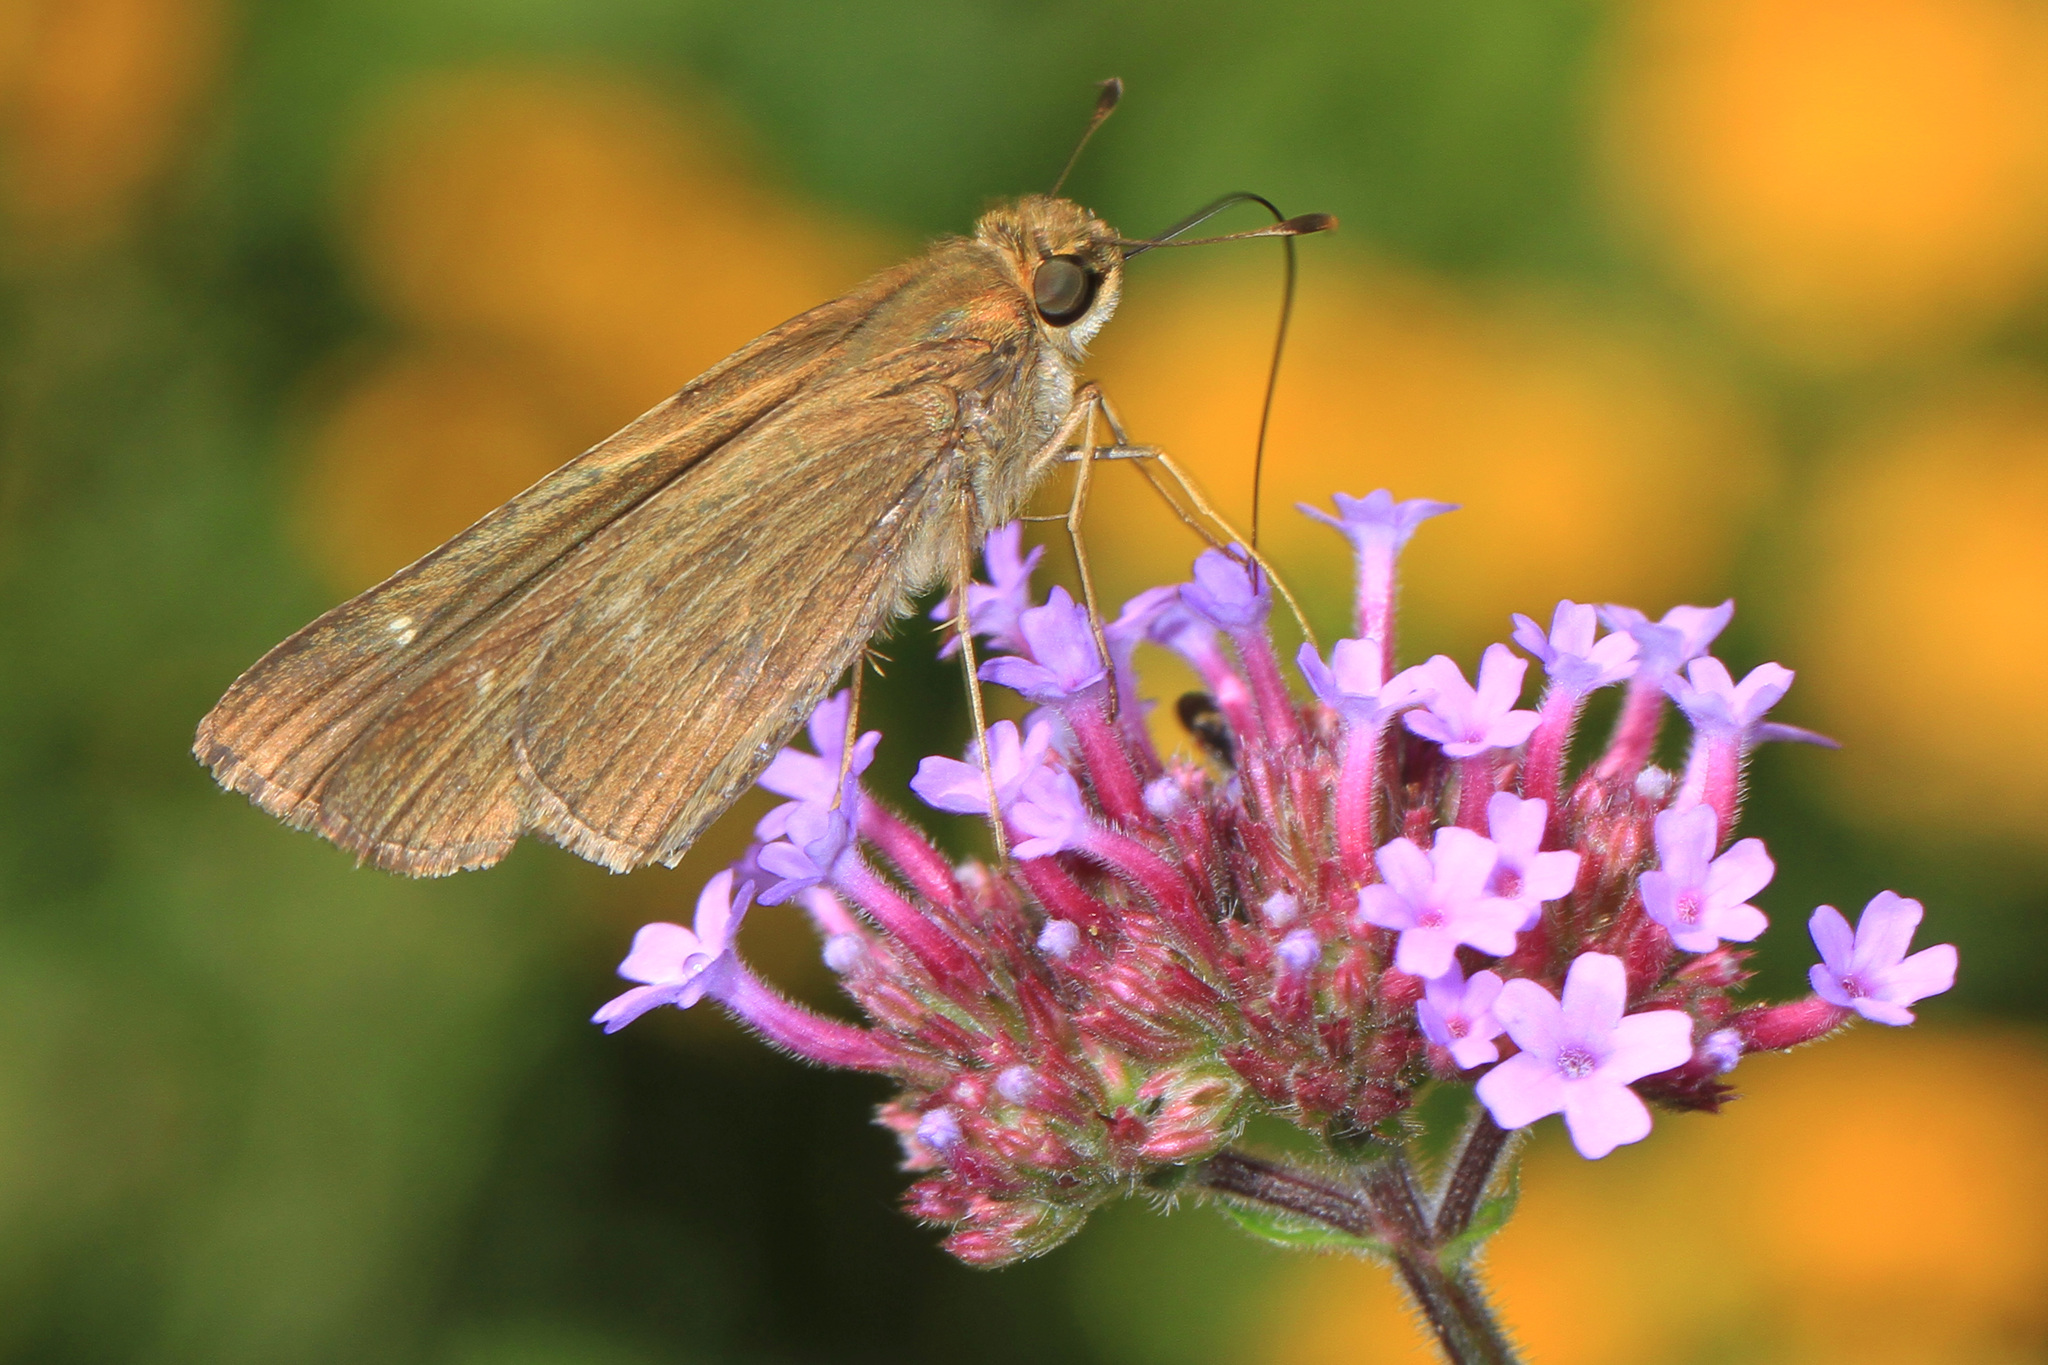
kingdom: Animalia
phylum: Arthropoda
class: Insecta
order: Lepidoptera
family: Hesperiidae
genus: Panoquina
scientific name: Panoquina ocola
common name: Ocola skipper
